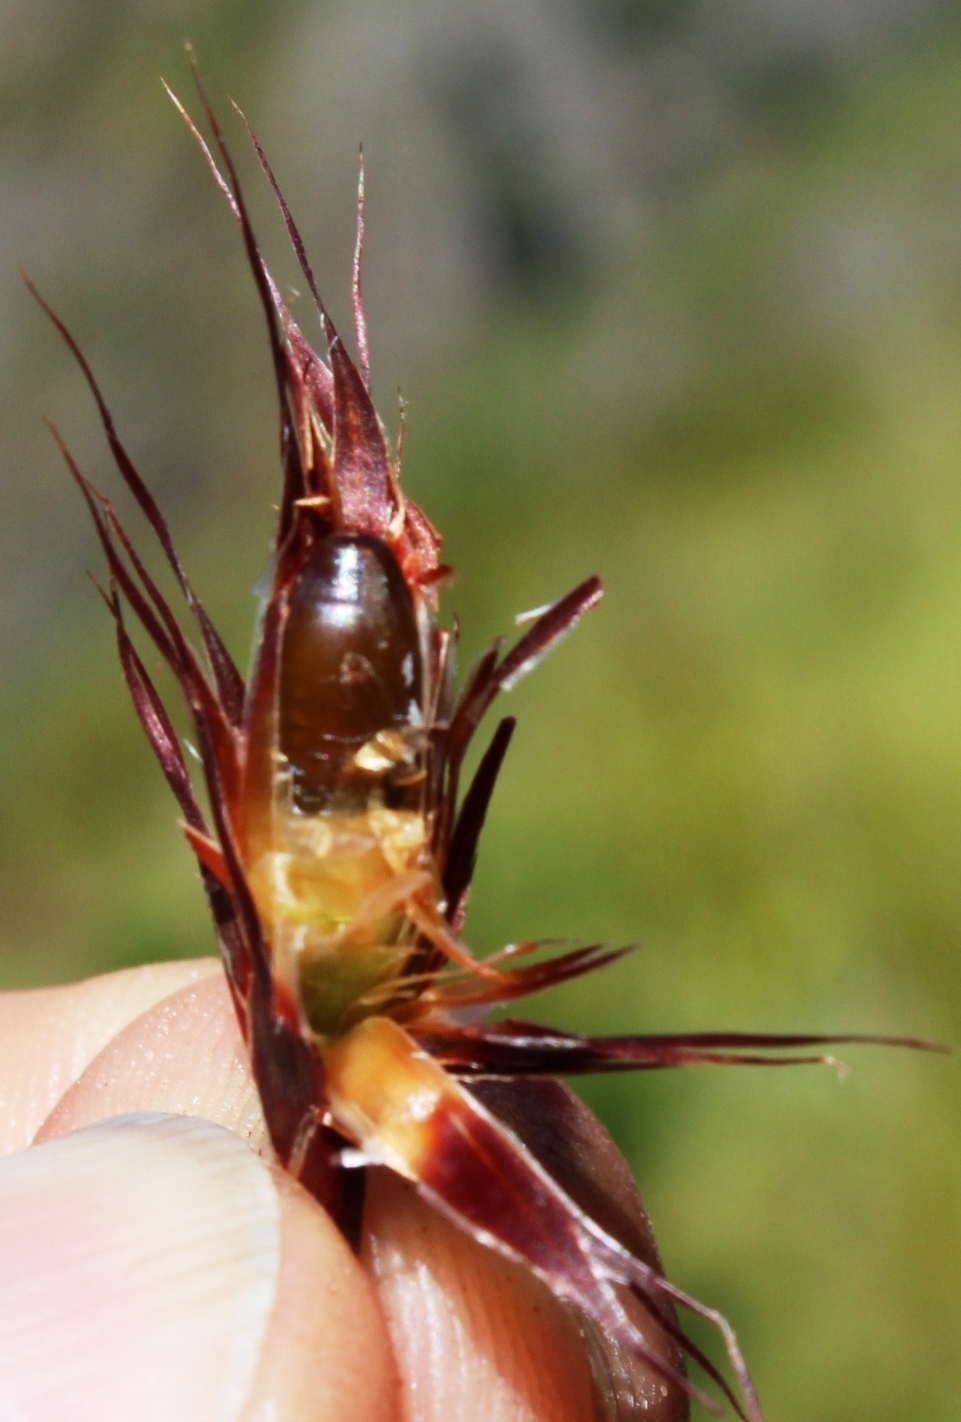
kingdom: Plantae
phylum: Tracheophyta
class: Liliopsida
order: Poales
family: Restionaceae
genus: Hypodiscus
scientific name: Hypodiscus aristatus
